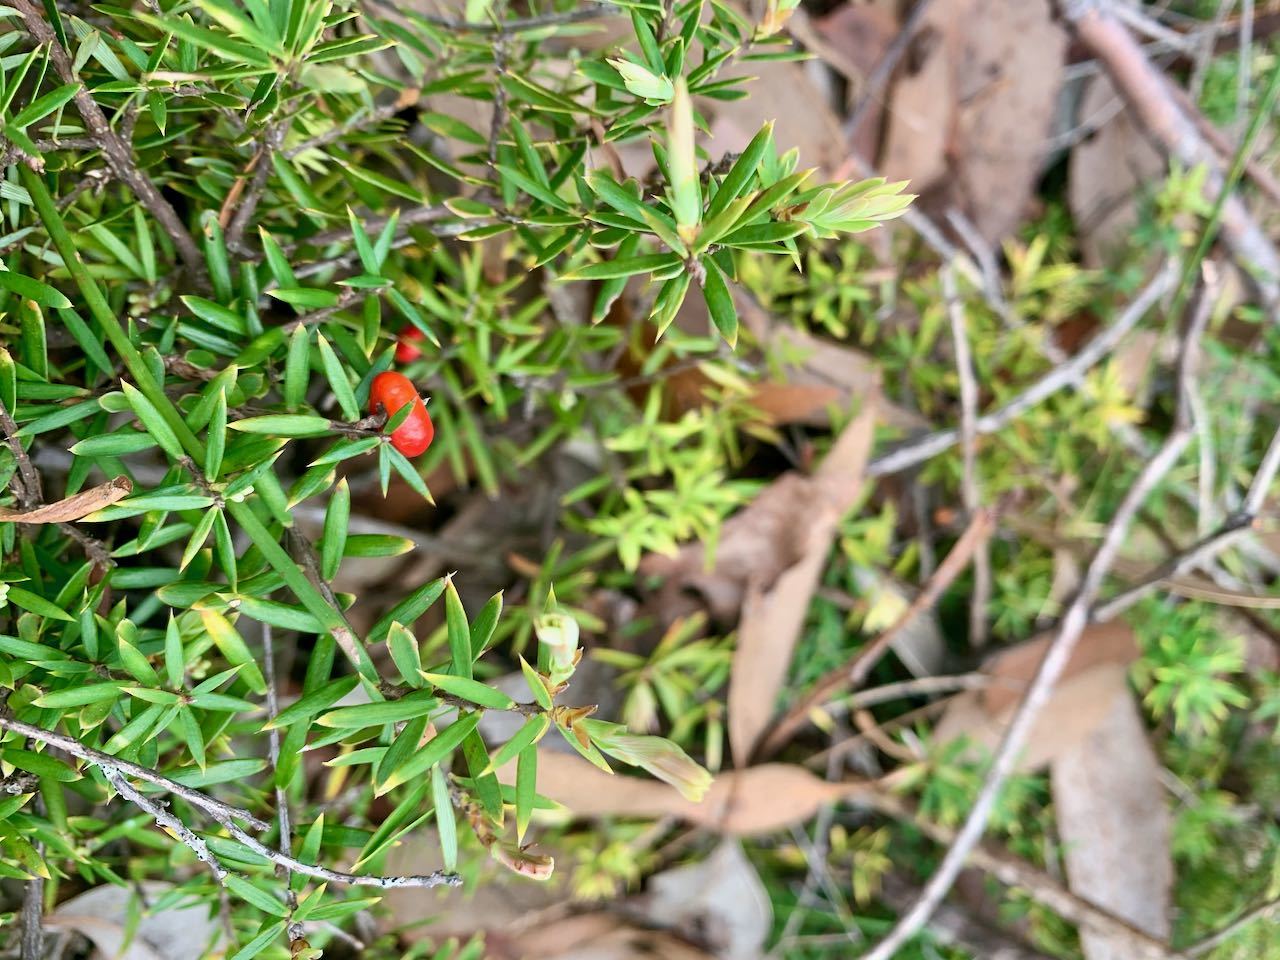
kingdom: Plantae
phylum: Tracheophyta
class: Magnoliopsida
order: Ericales
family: Ericaceae
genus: Acrotriche
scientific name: Acrotriche aggregata
